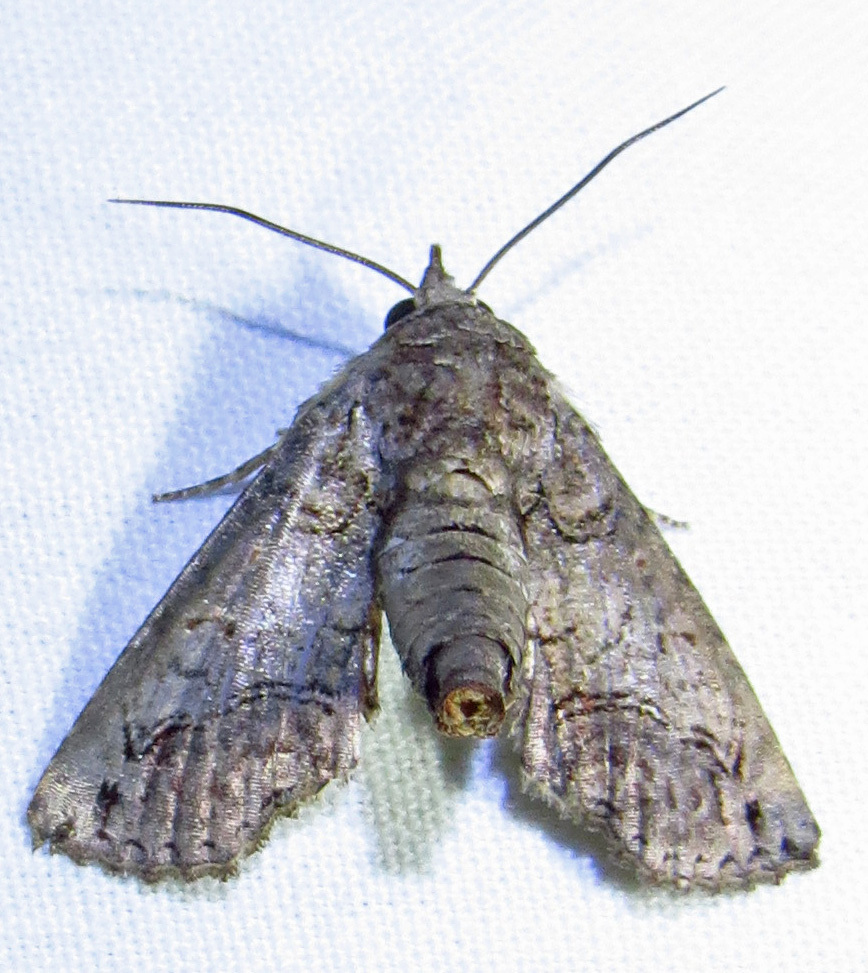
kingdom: Animalia
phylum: Arthropoda
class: Insecta
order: Lepidoptera
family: Euteliidae
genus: Paectes
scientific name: Paectes abrostoloides
